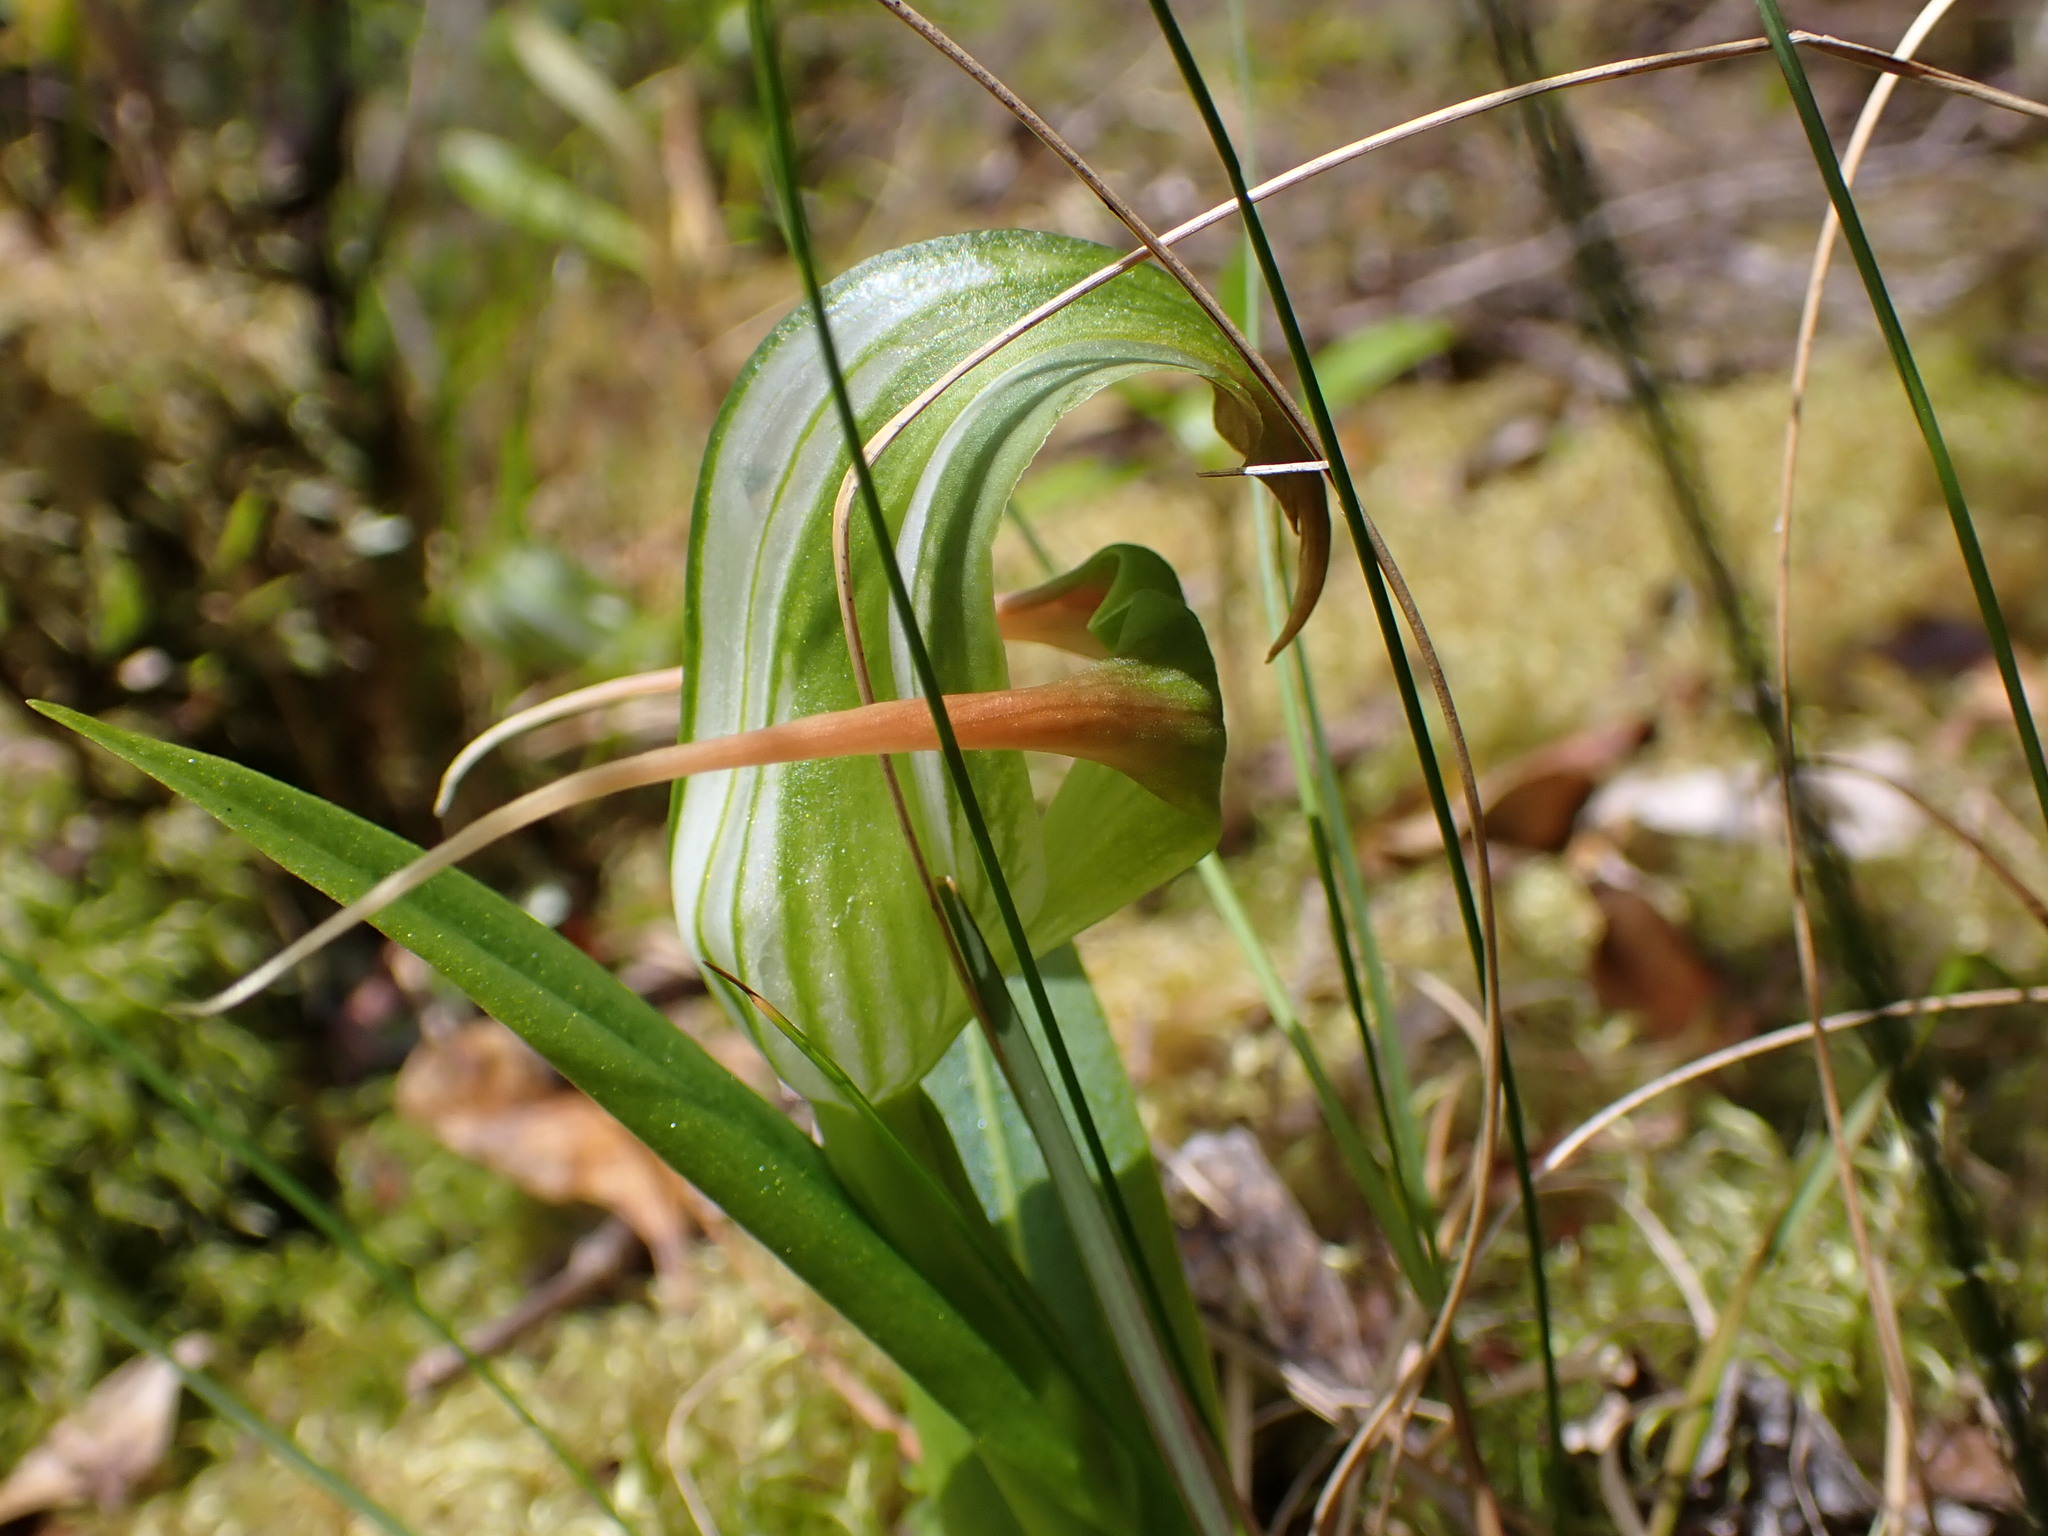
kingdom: Plantae
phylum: Tracheophyta
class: Liliopsida
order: Asparagales
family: Orchidaceae
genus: Pterostylis
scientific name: Pterostylis patens
